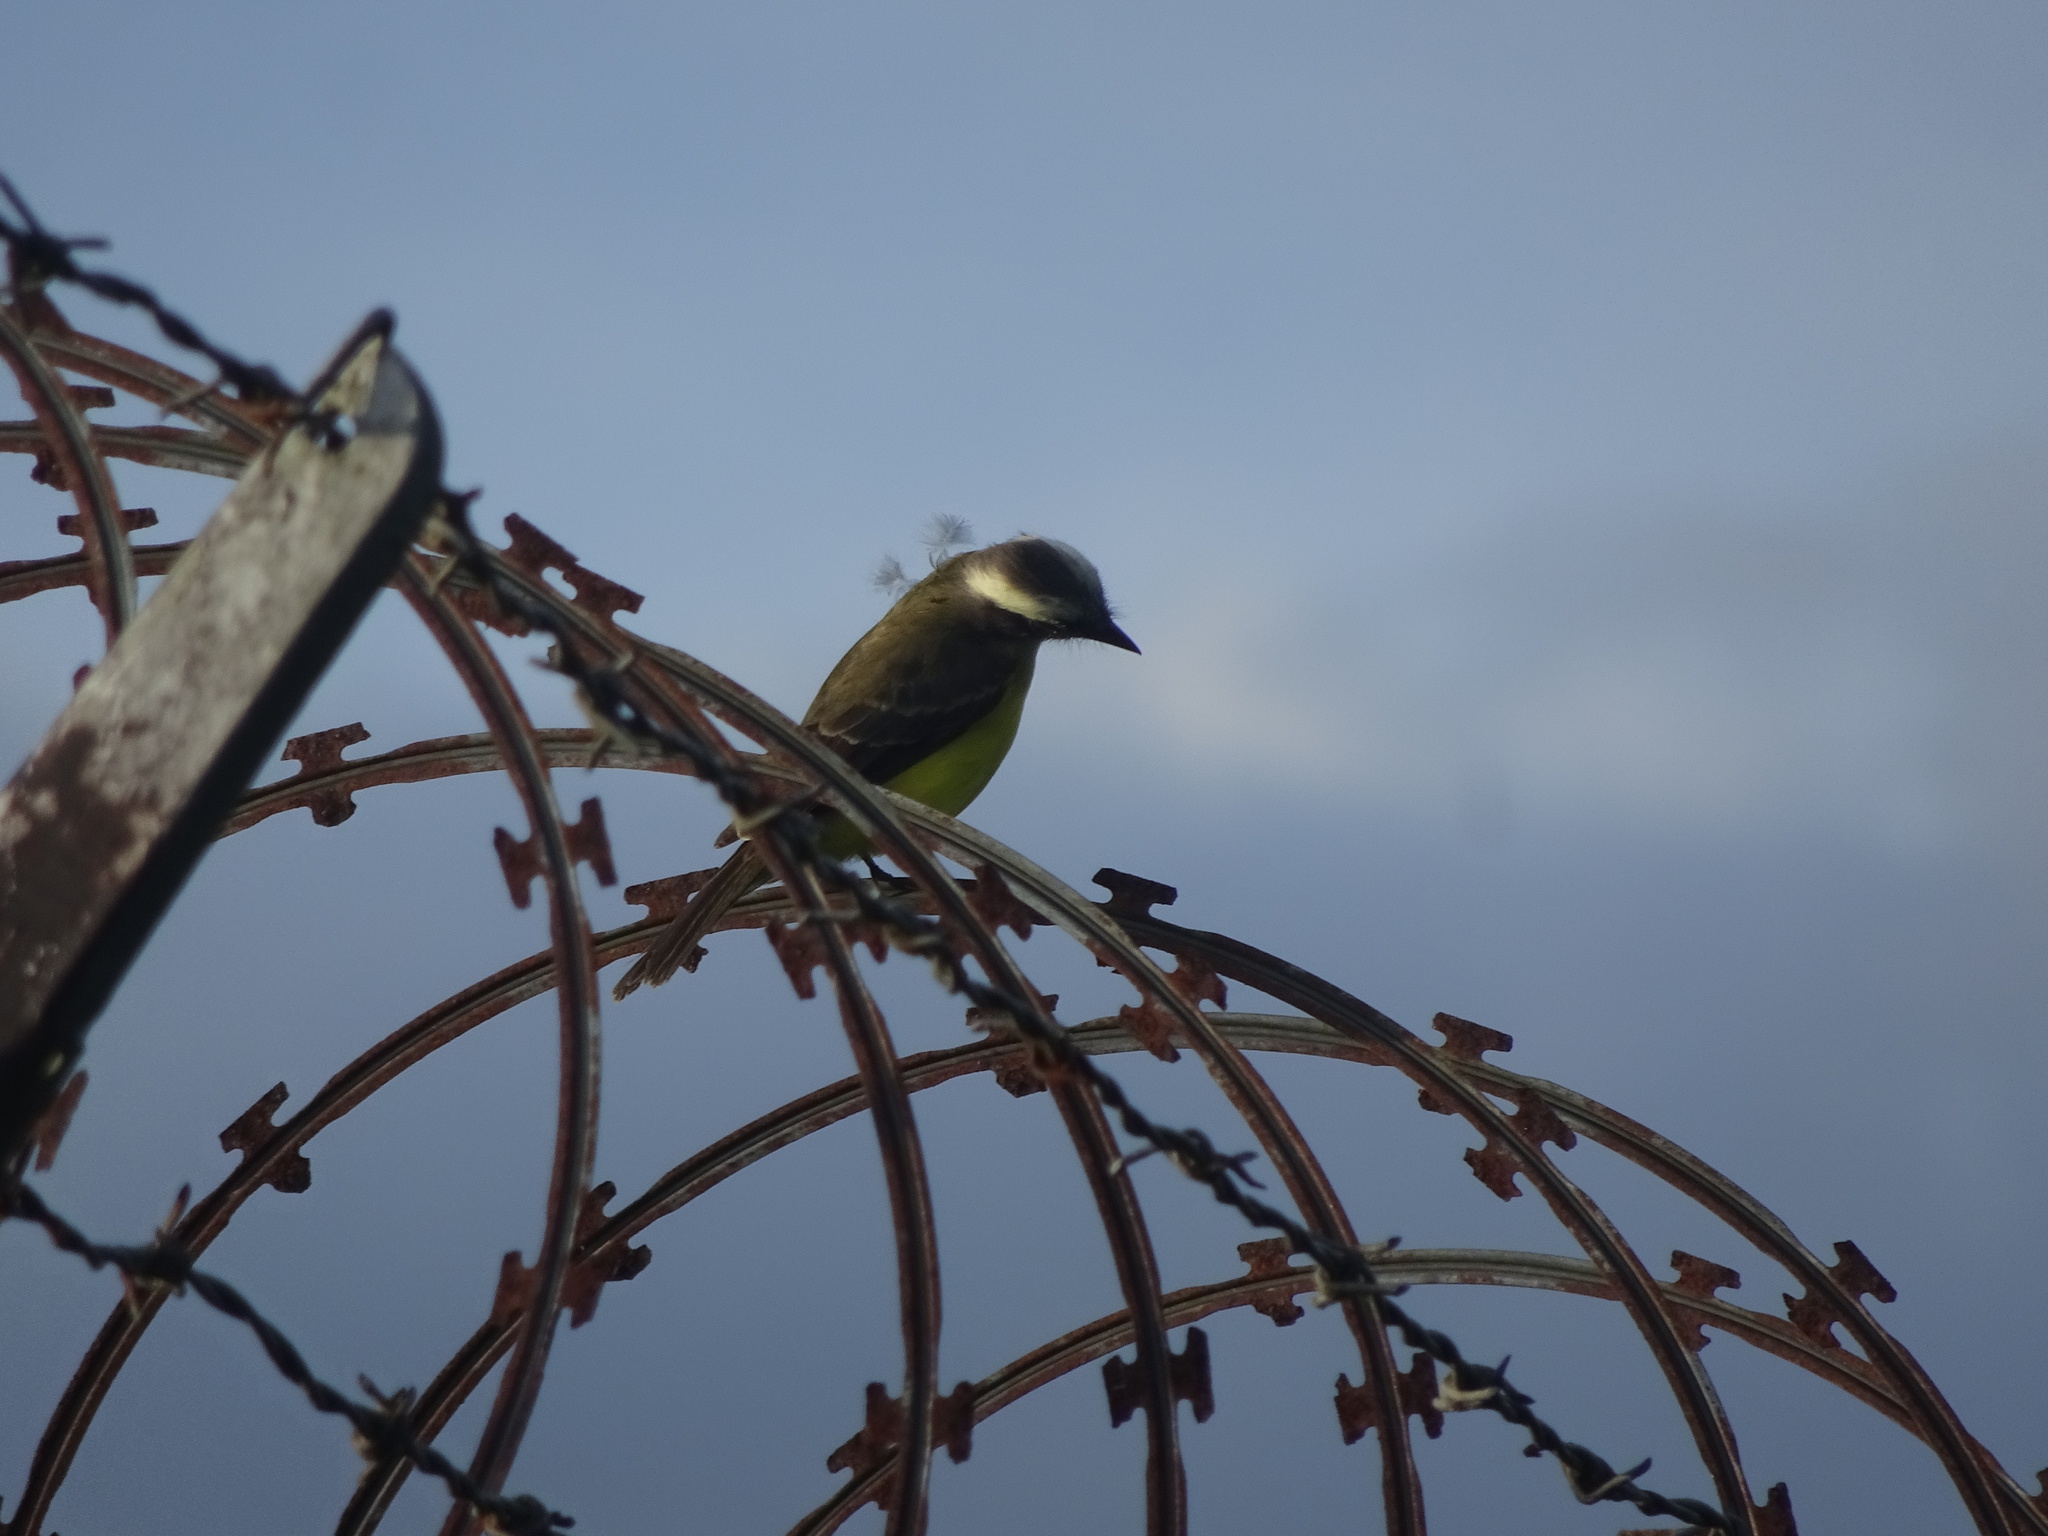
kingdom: Animalia
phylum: Chordata
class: Aves
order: Passeriformes
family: Tyrannidae
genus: Myiozetetes
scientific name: Myiozetetes similis
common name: Social flycatcher
